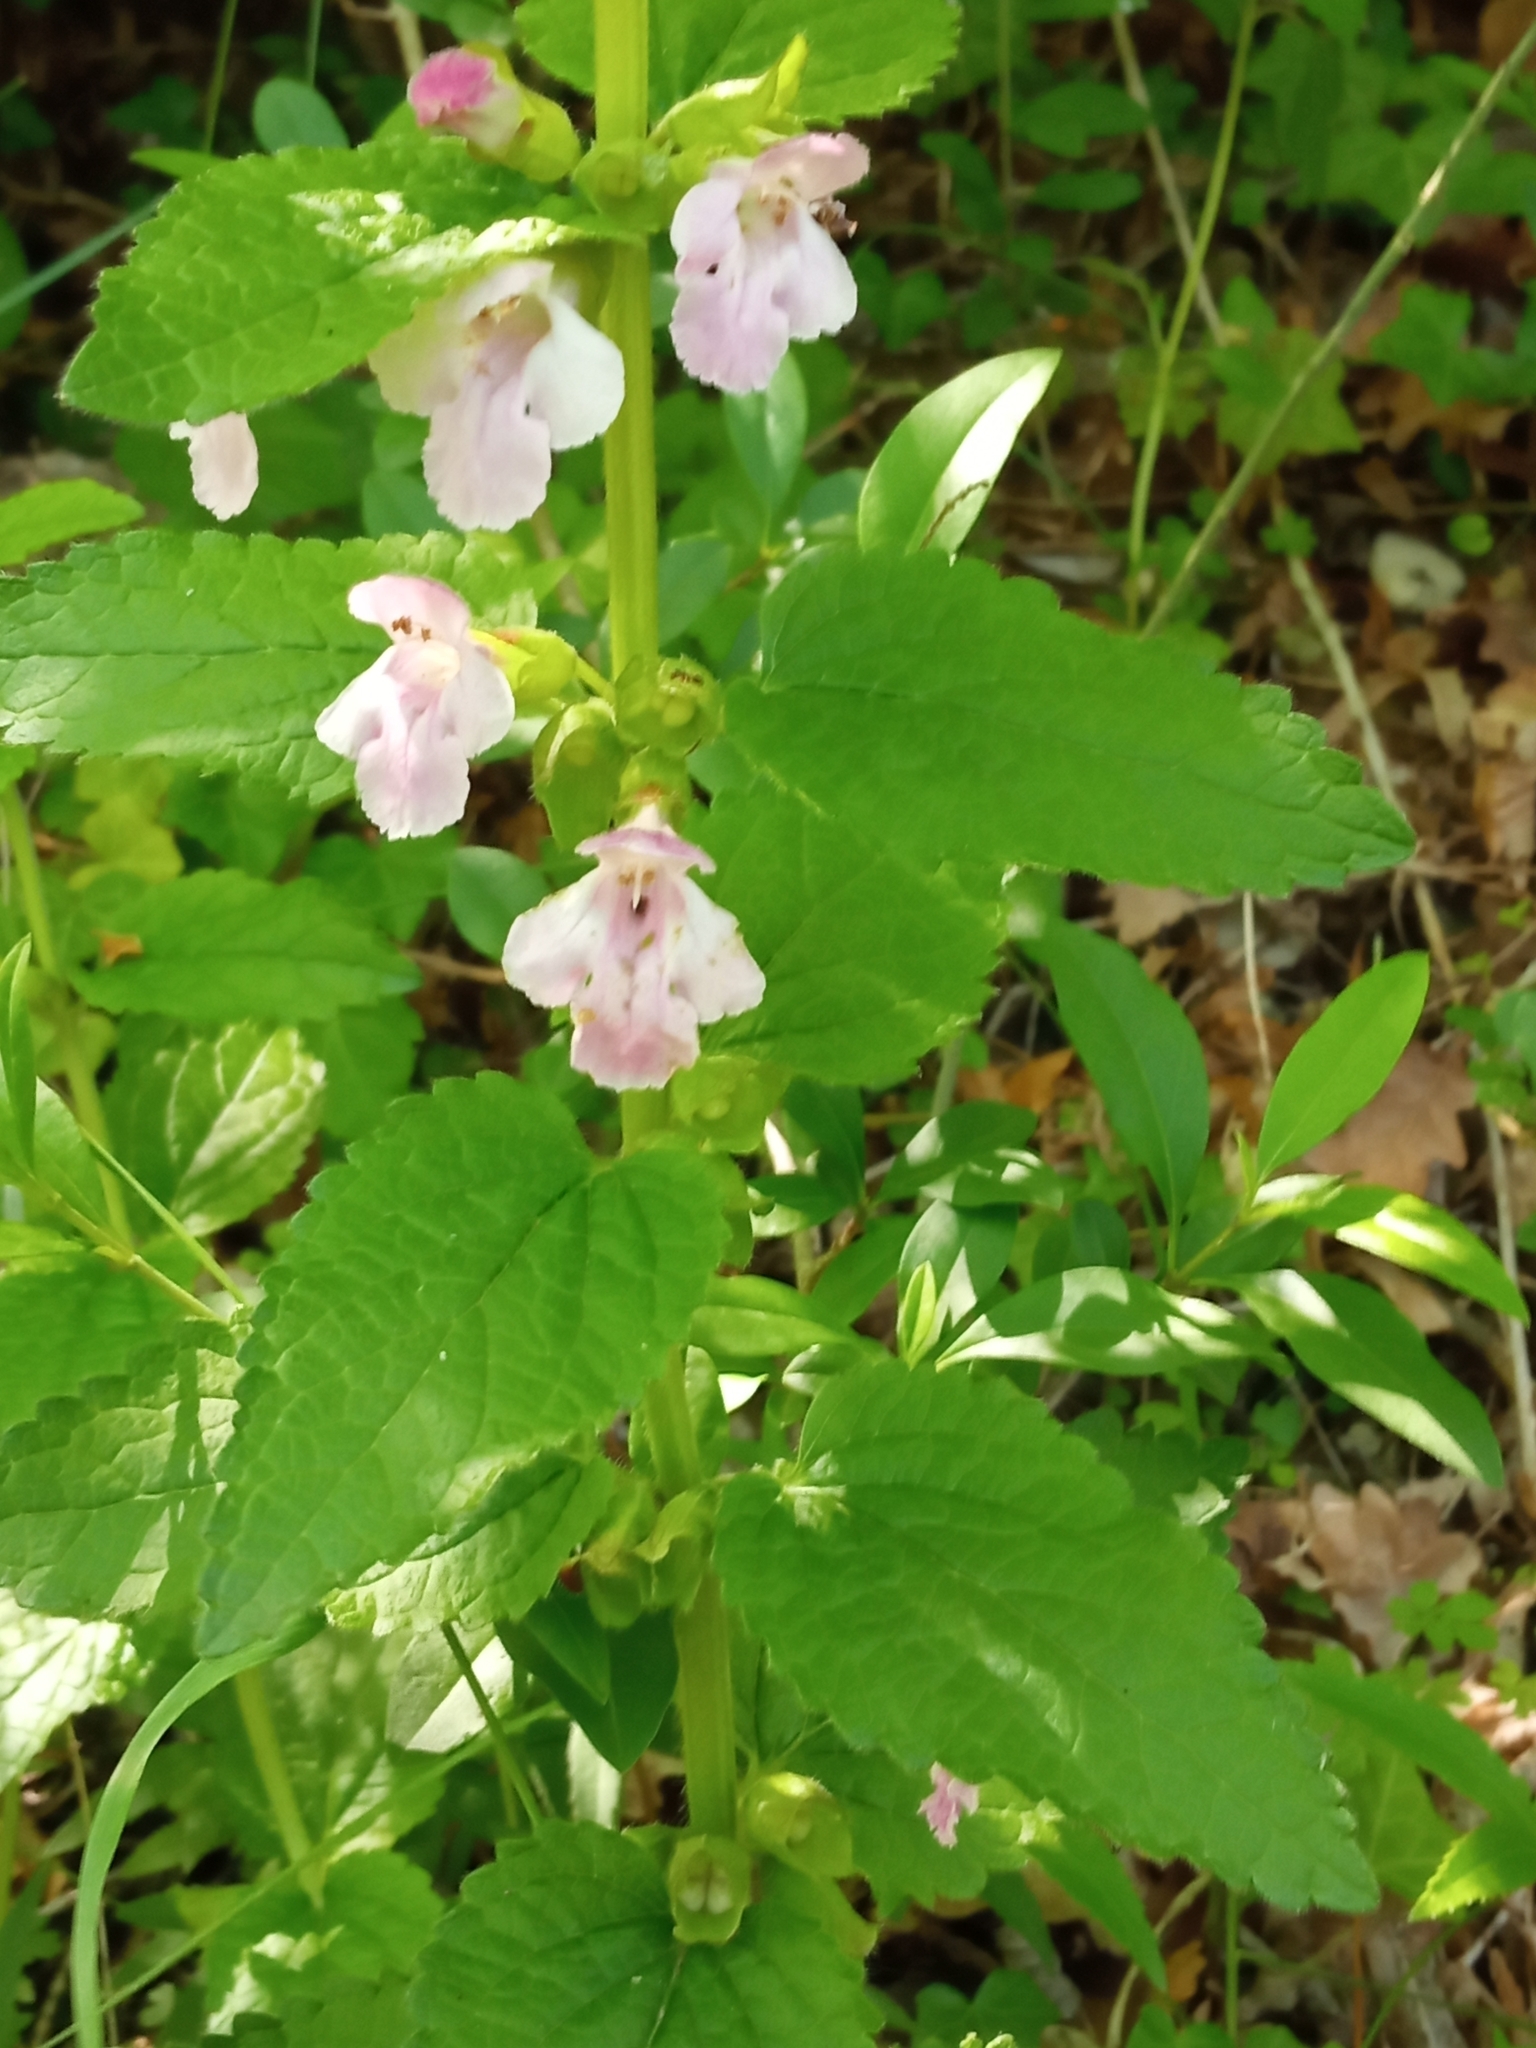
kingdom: Plantae
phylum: Tracheophyta
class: Magnoliopsida
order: Lamiales
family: Lamiaceae
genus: Melittis
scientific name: Melittis melissophyllum
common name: Bastard balm
